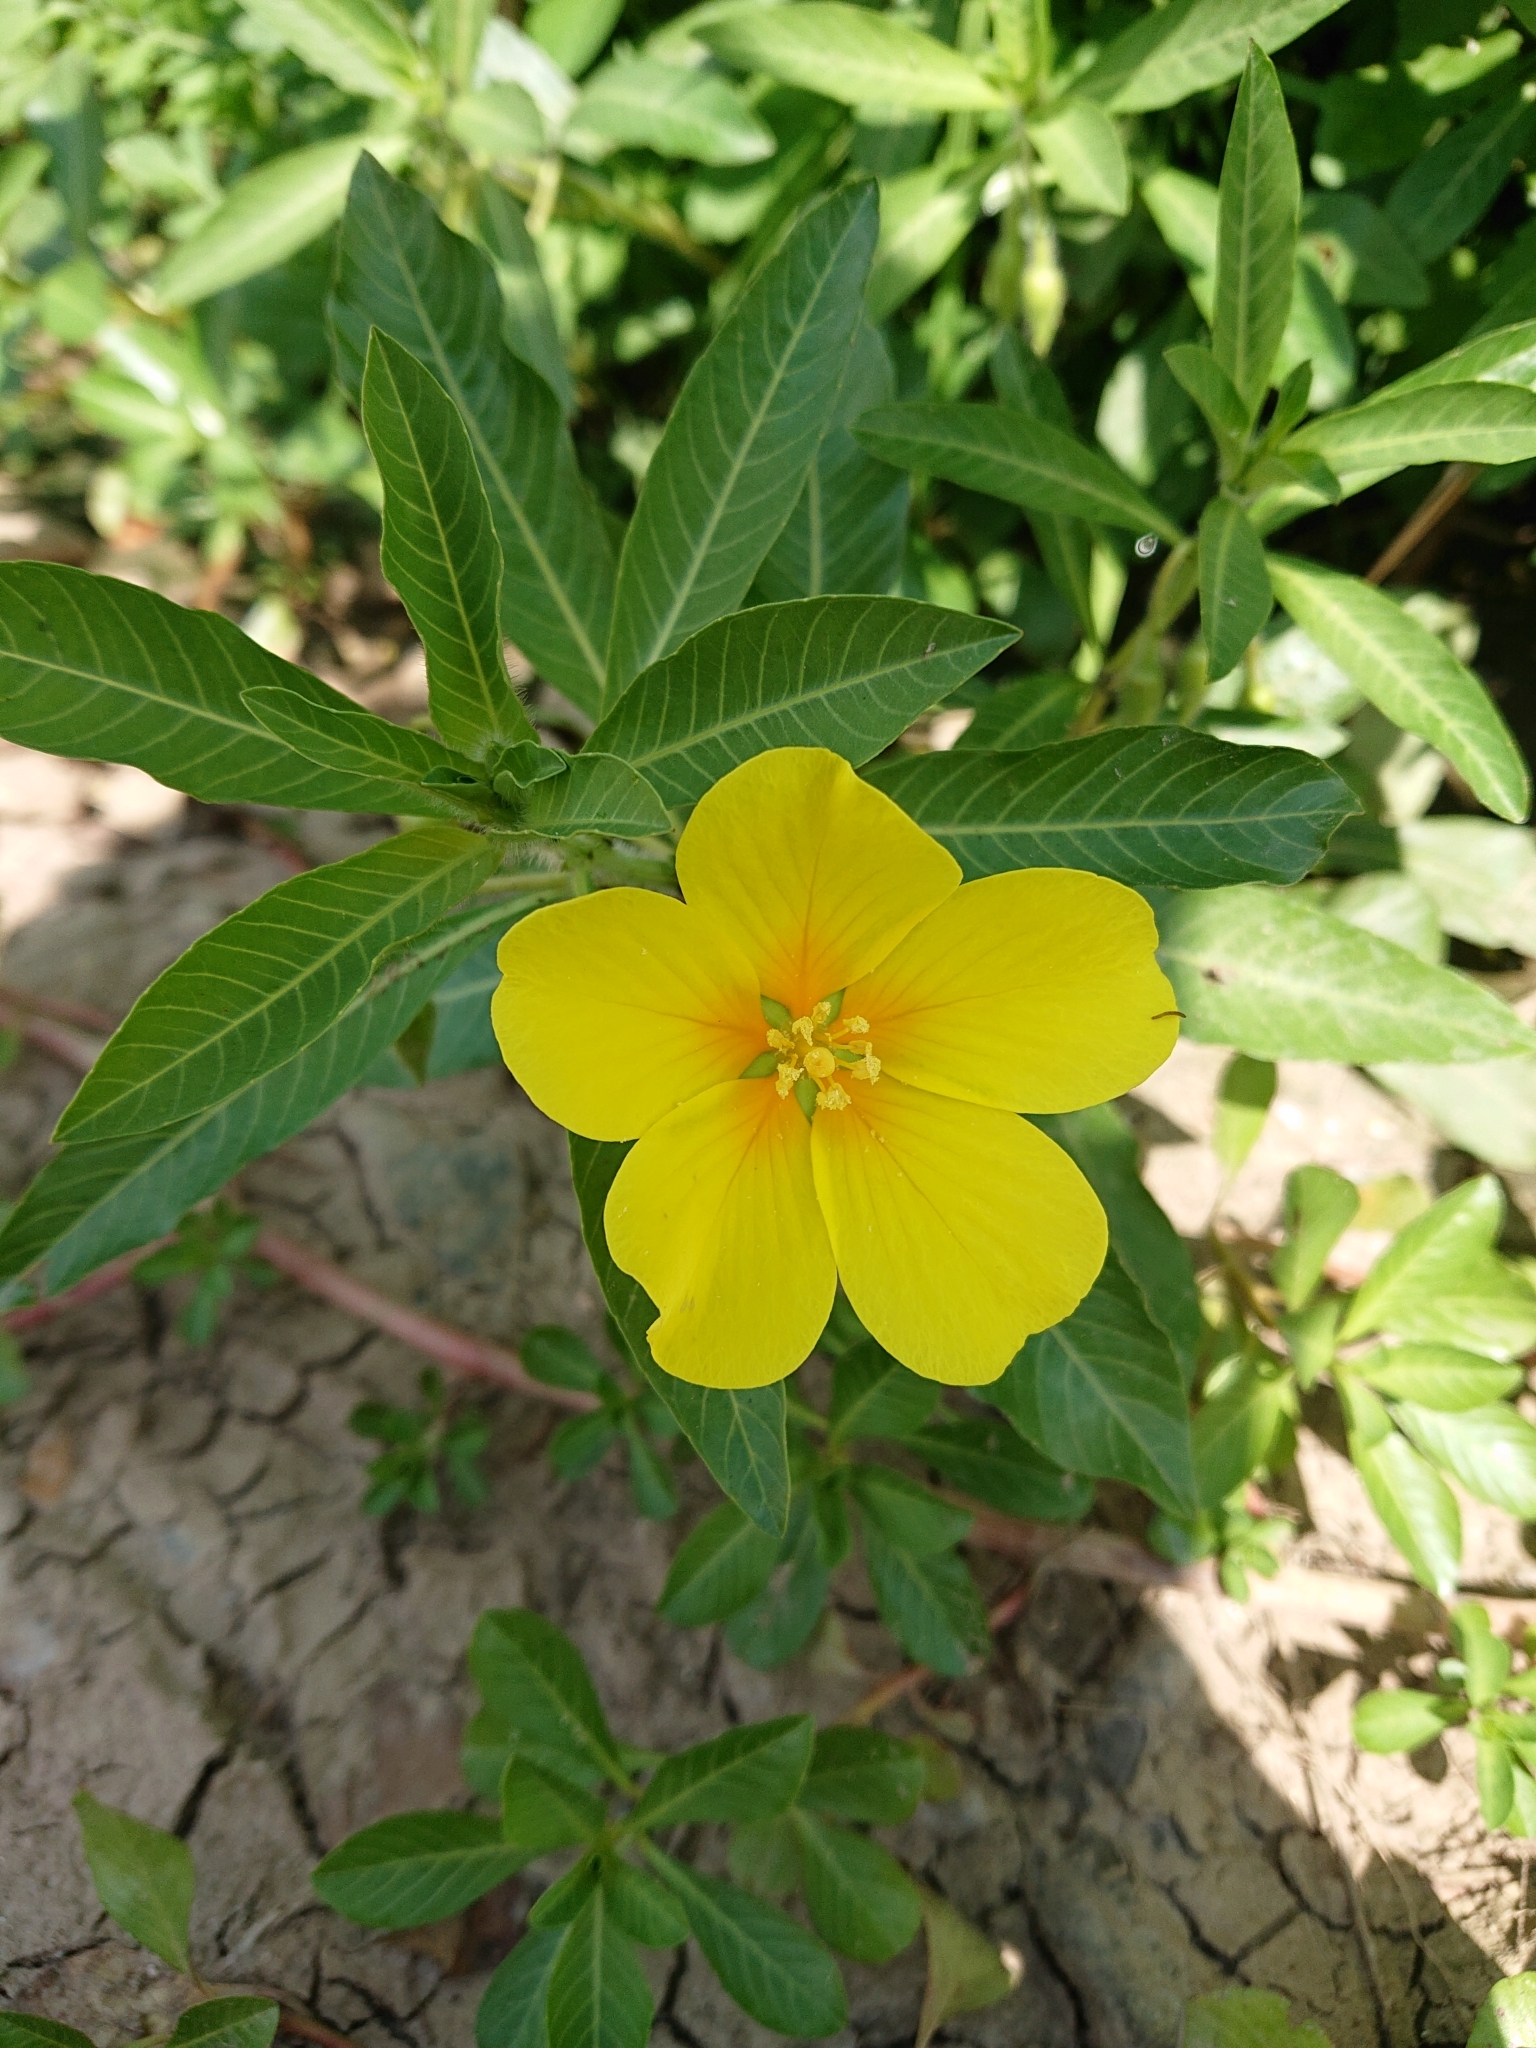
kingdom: Plantae
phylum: Tracheophyta
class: Magnoliopsida
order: Myrtales
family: Onagraceae
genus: Ludwigia
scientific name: Ludwigia hexapetala
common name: Water-primrose
